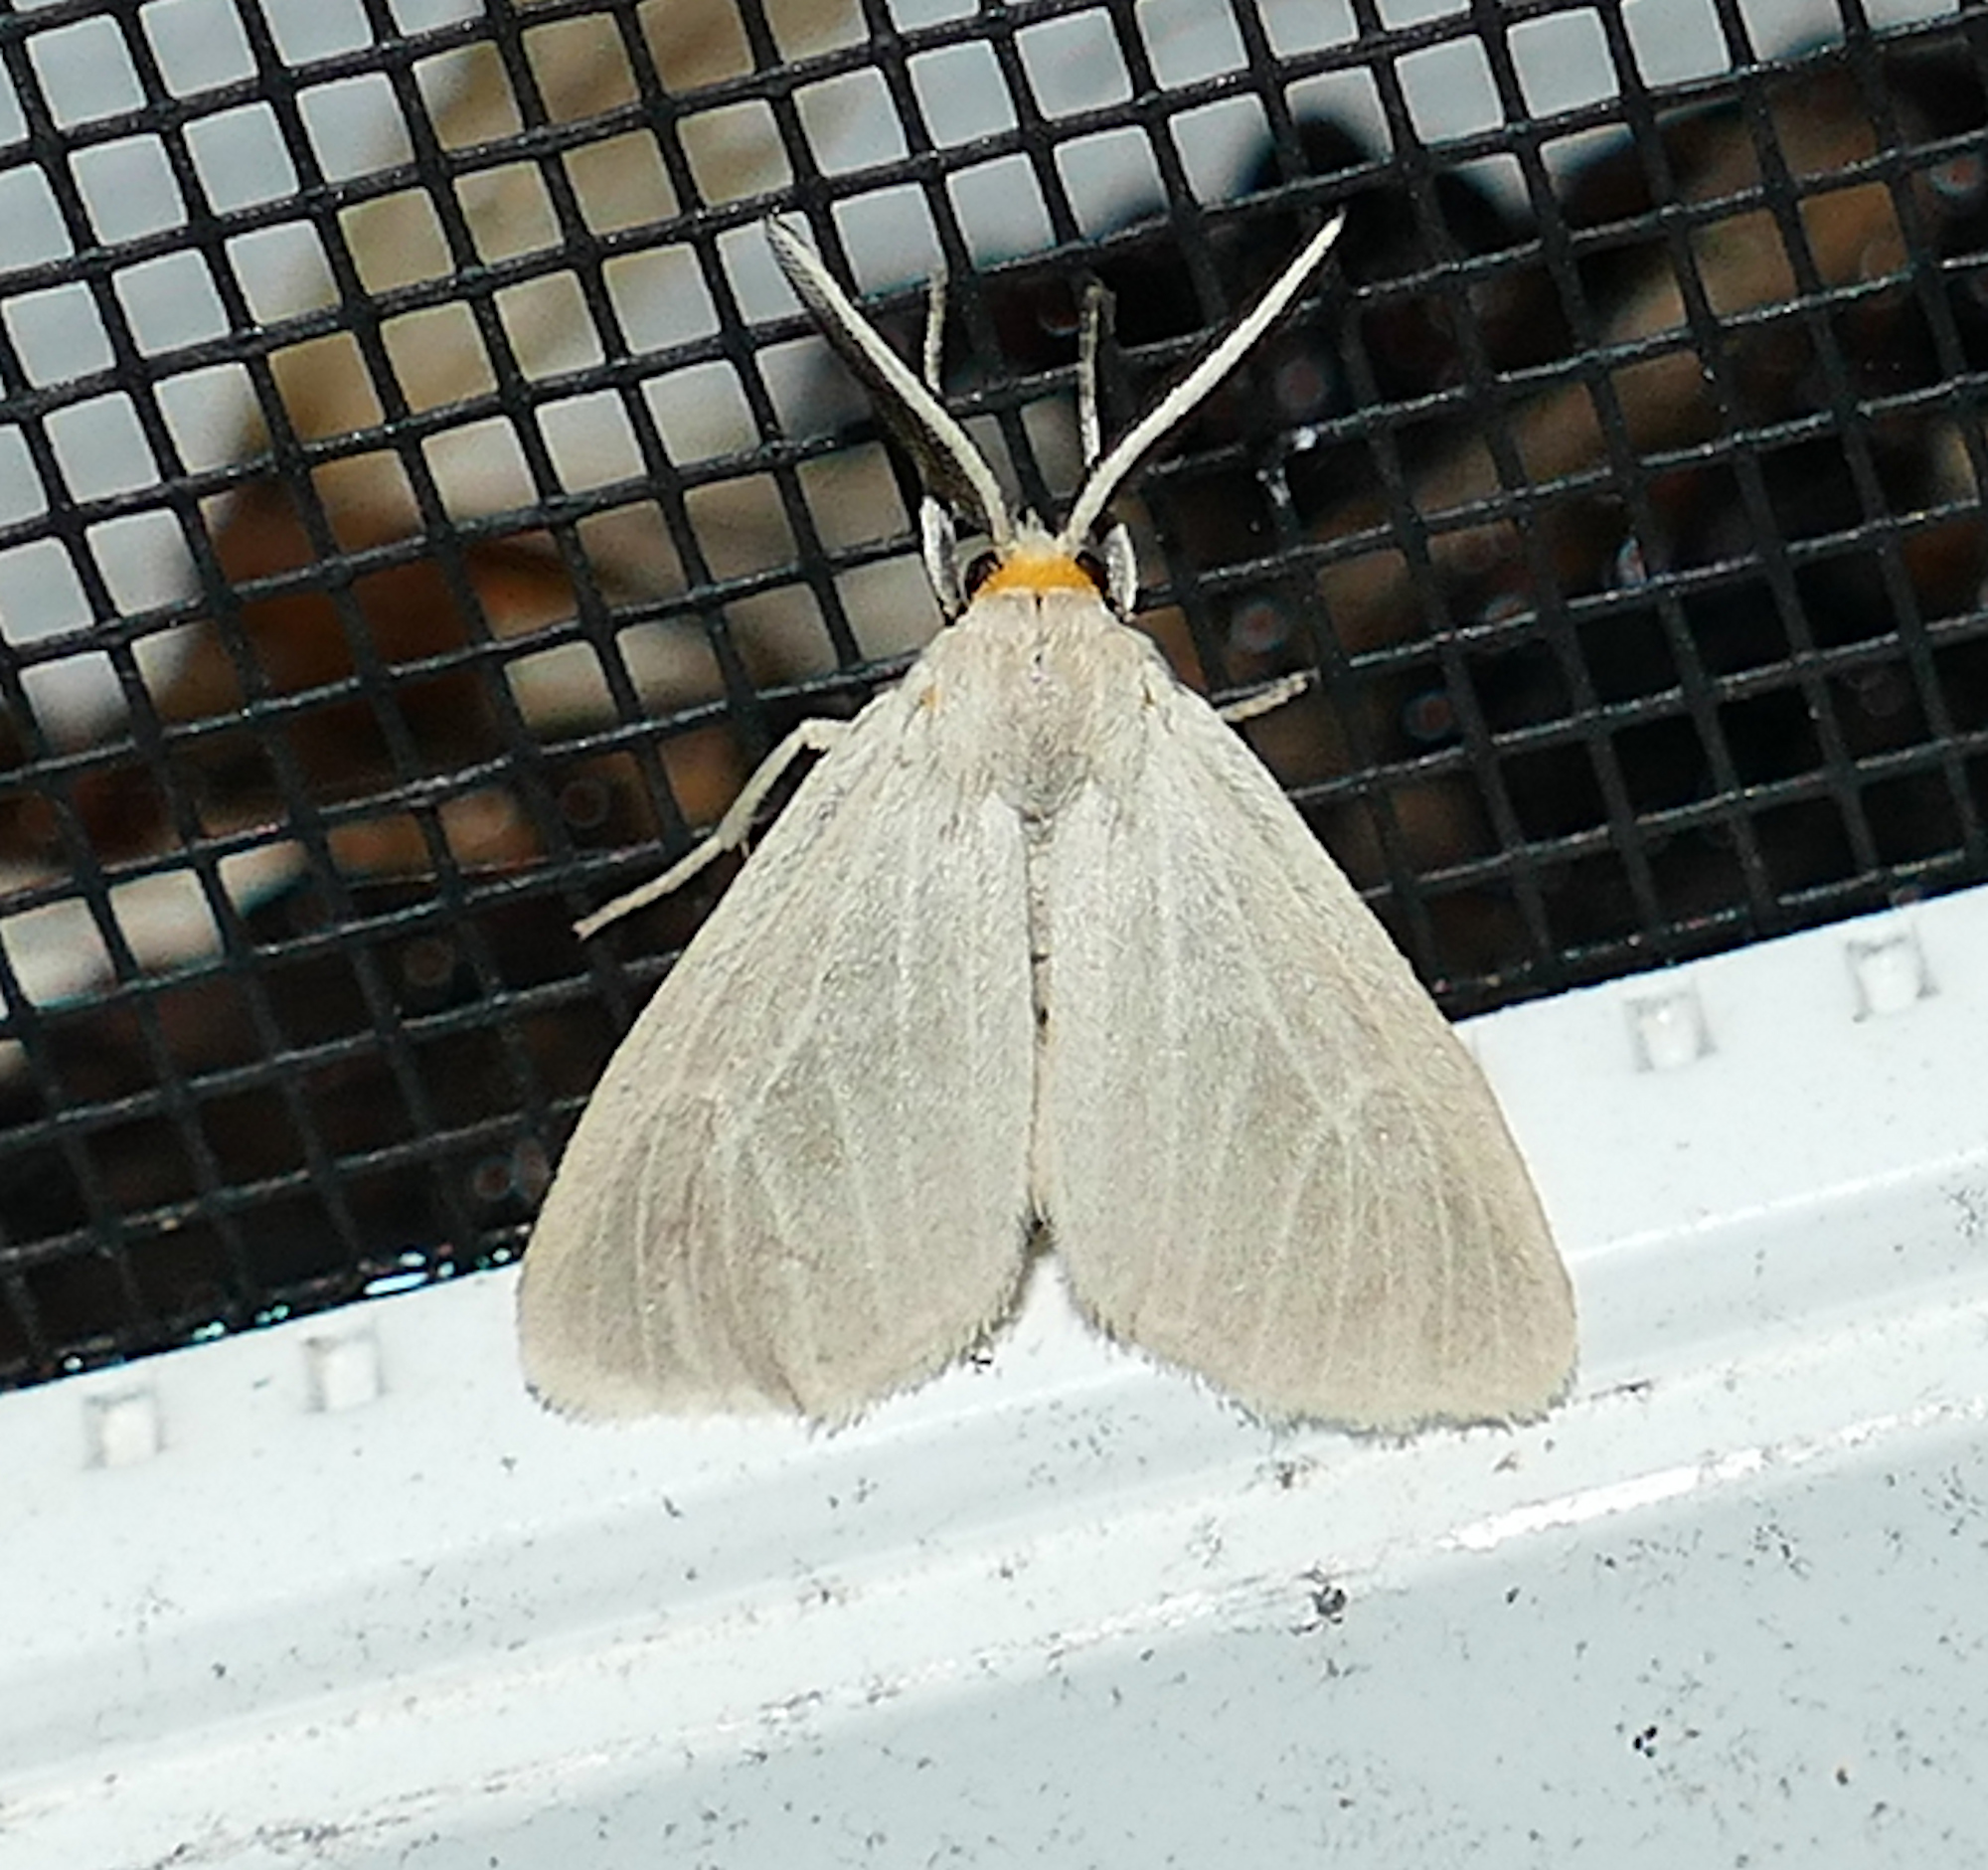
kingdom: Animalia
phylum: Arthropoda
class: Insecta
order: Lepidoptera
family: Erebidae
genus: Neoplynes
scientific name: Neoplynes eudora
